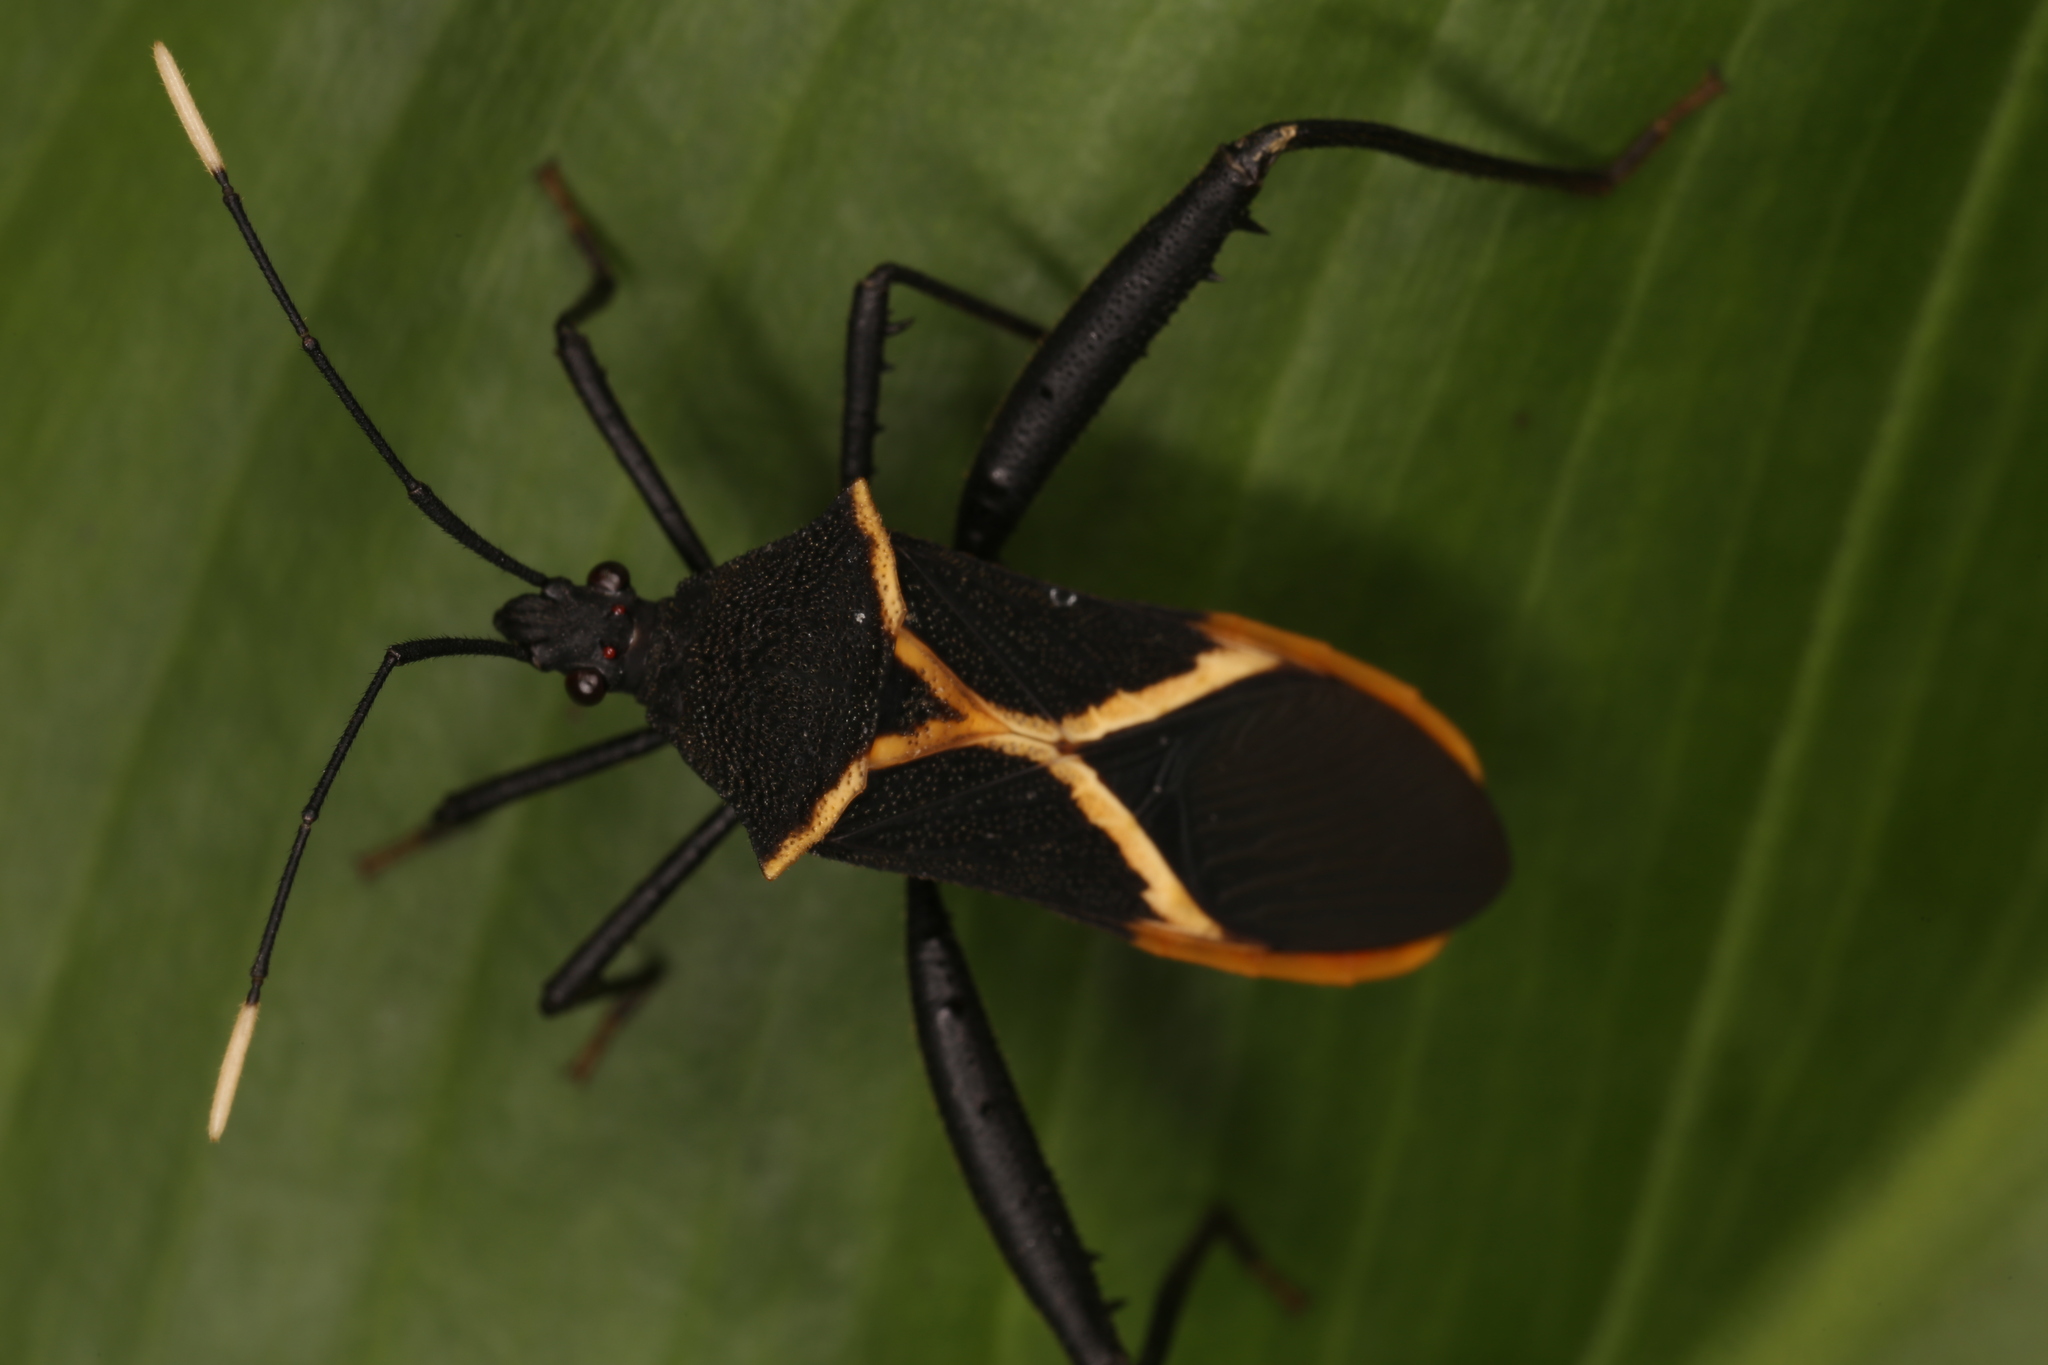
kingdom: Animalia
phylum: Arthropoda
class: Insecta
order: Hemiptera
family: Coreidae
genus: Leptoscelis
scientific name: Leptoscelis conspicuus
